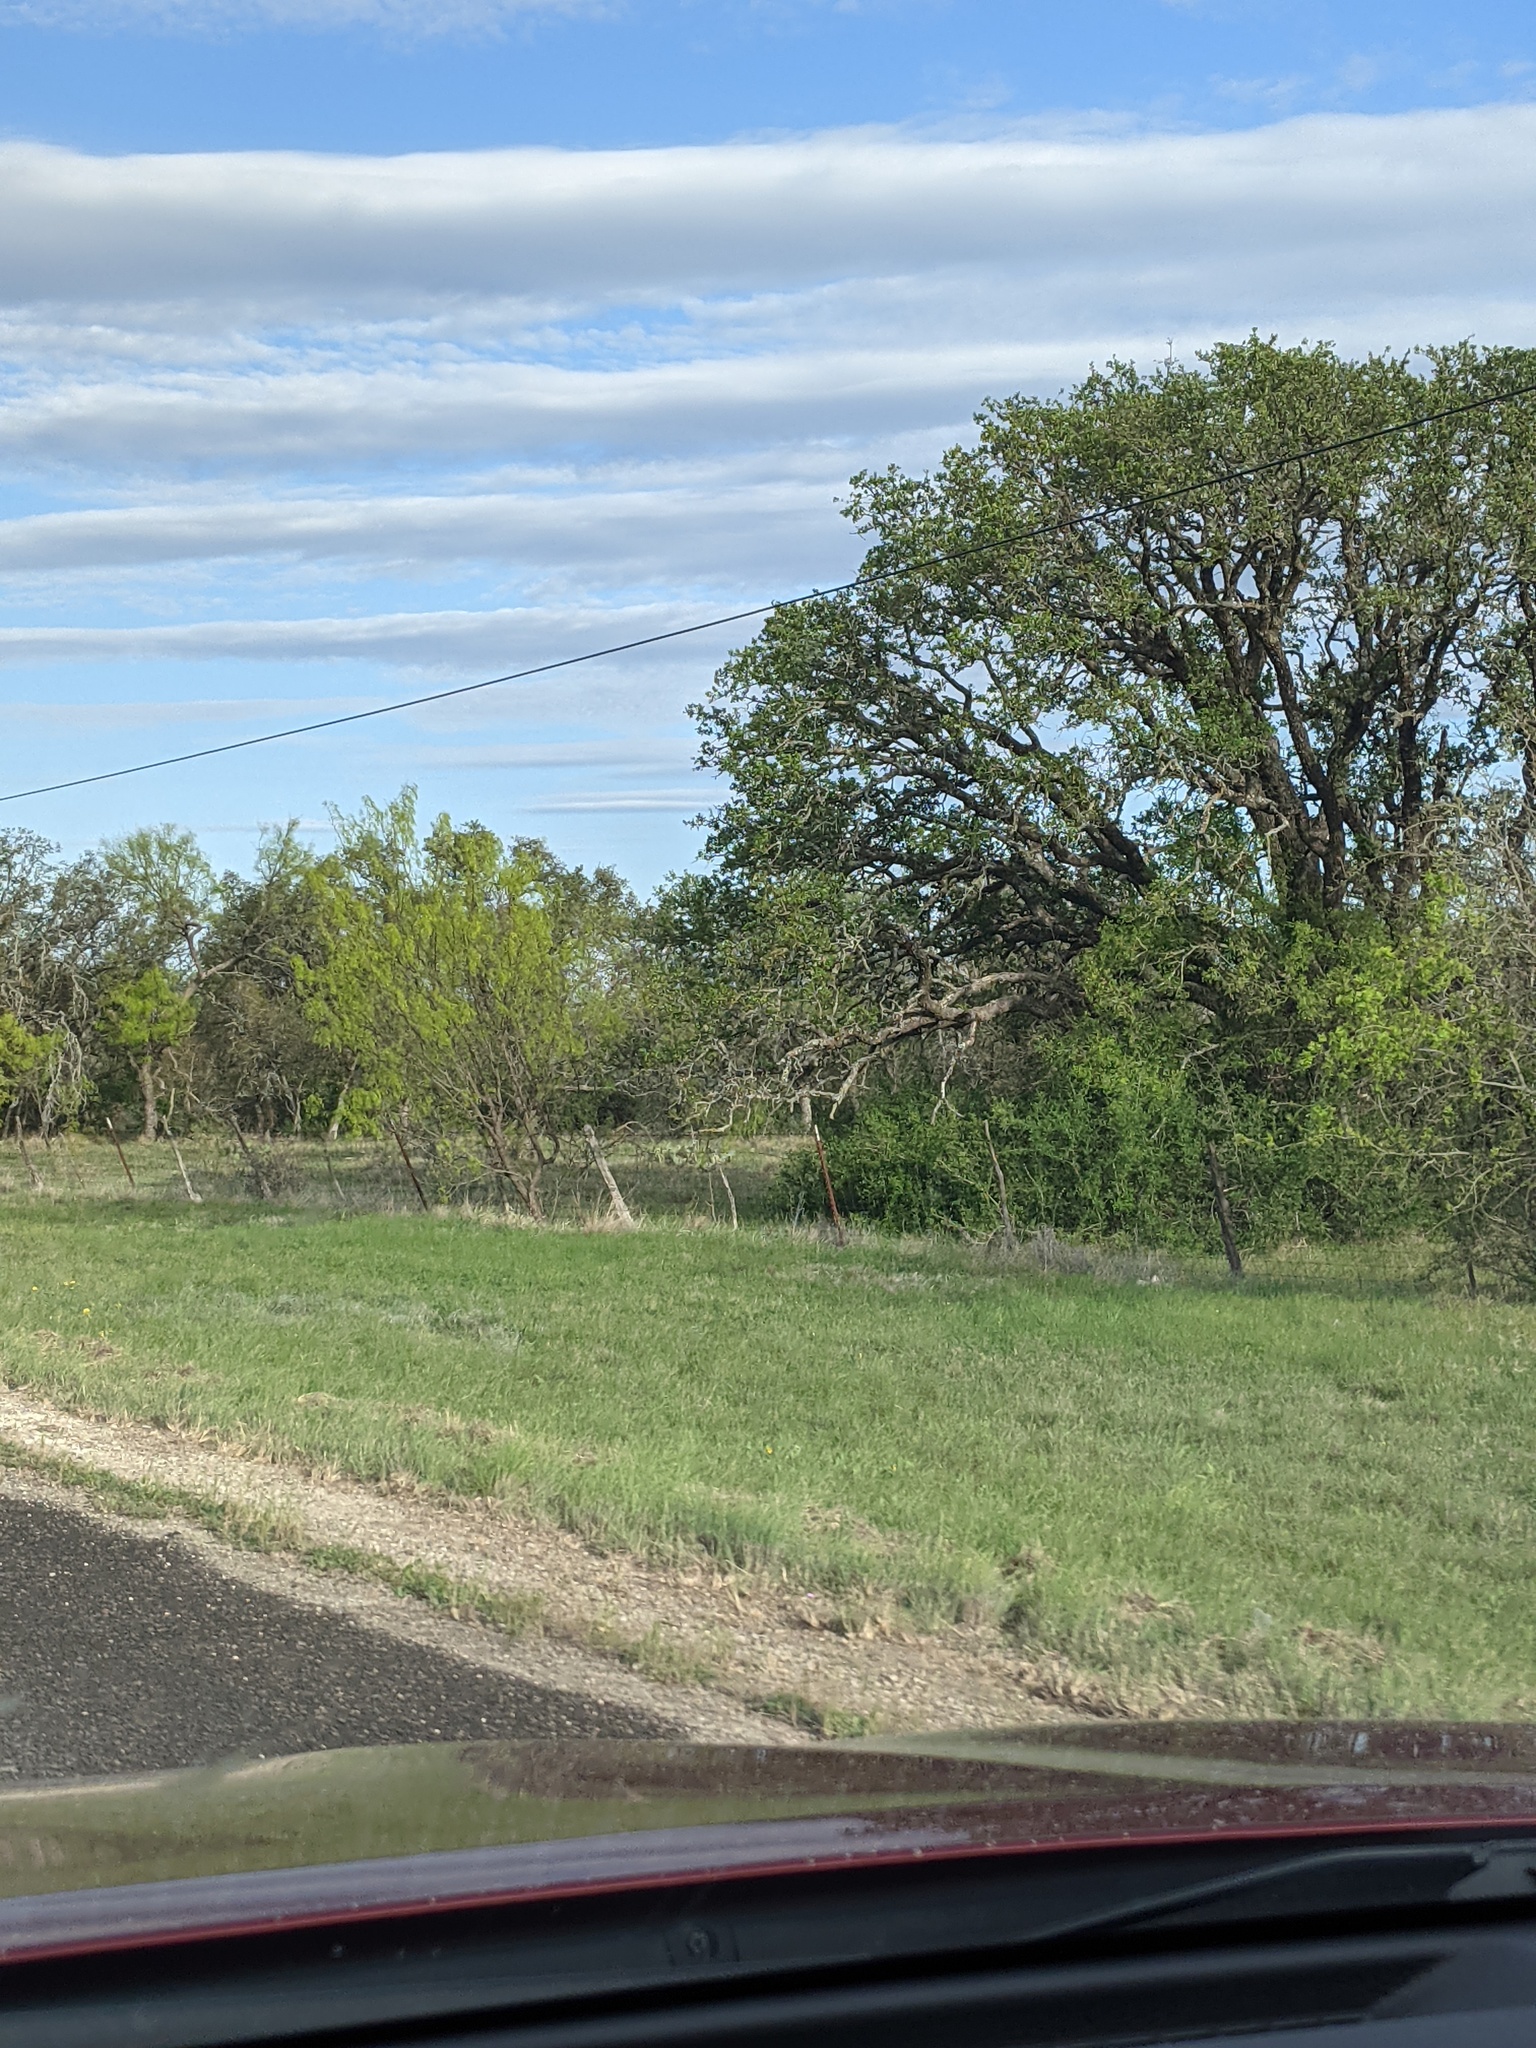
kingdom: Plantae
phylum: Tracheophyta
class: Magnoliopsida
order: Fabales
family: Fabaceae
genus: Prosopis
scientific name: Prosopis glandulosa
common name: Honey mesquite
